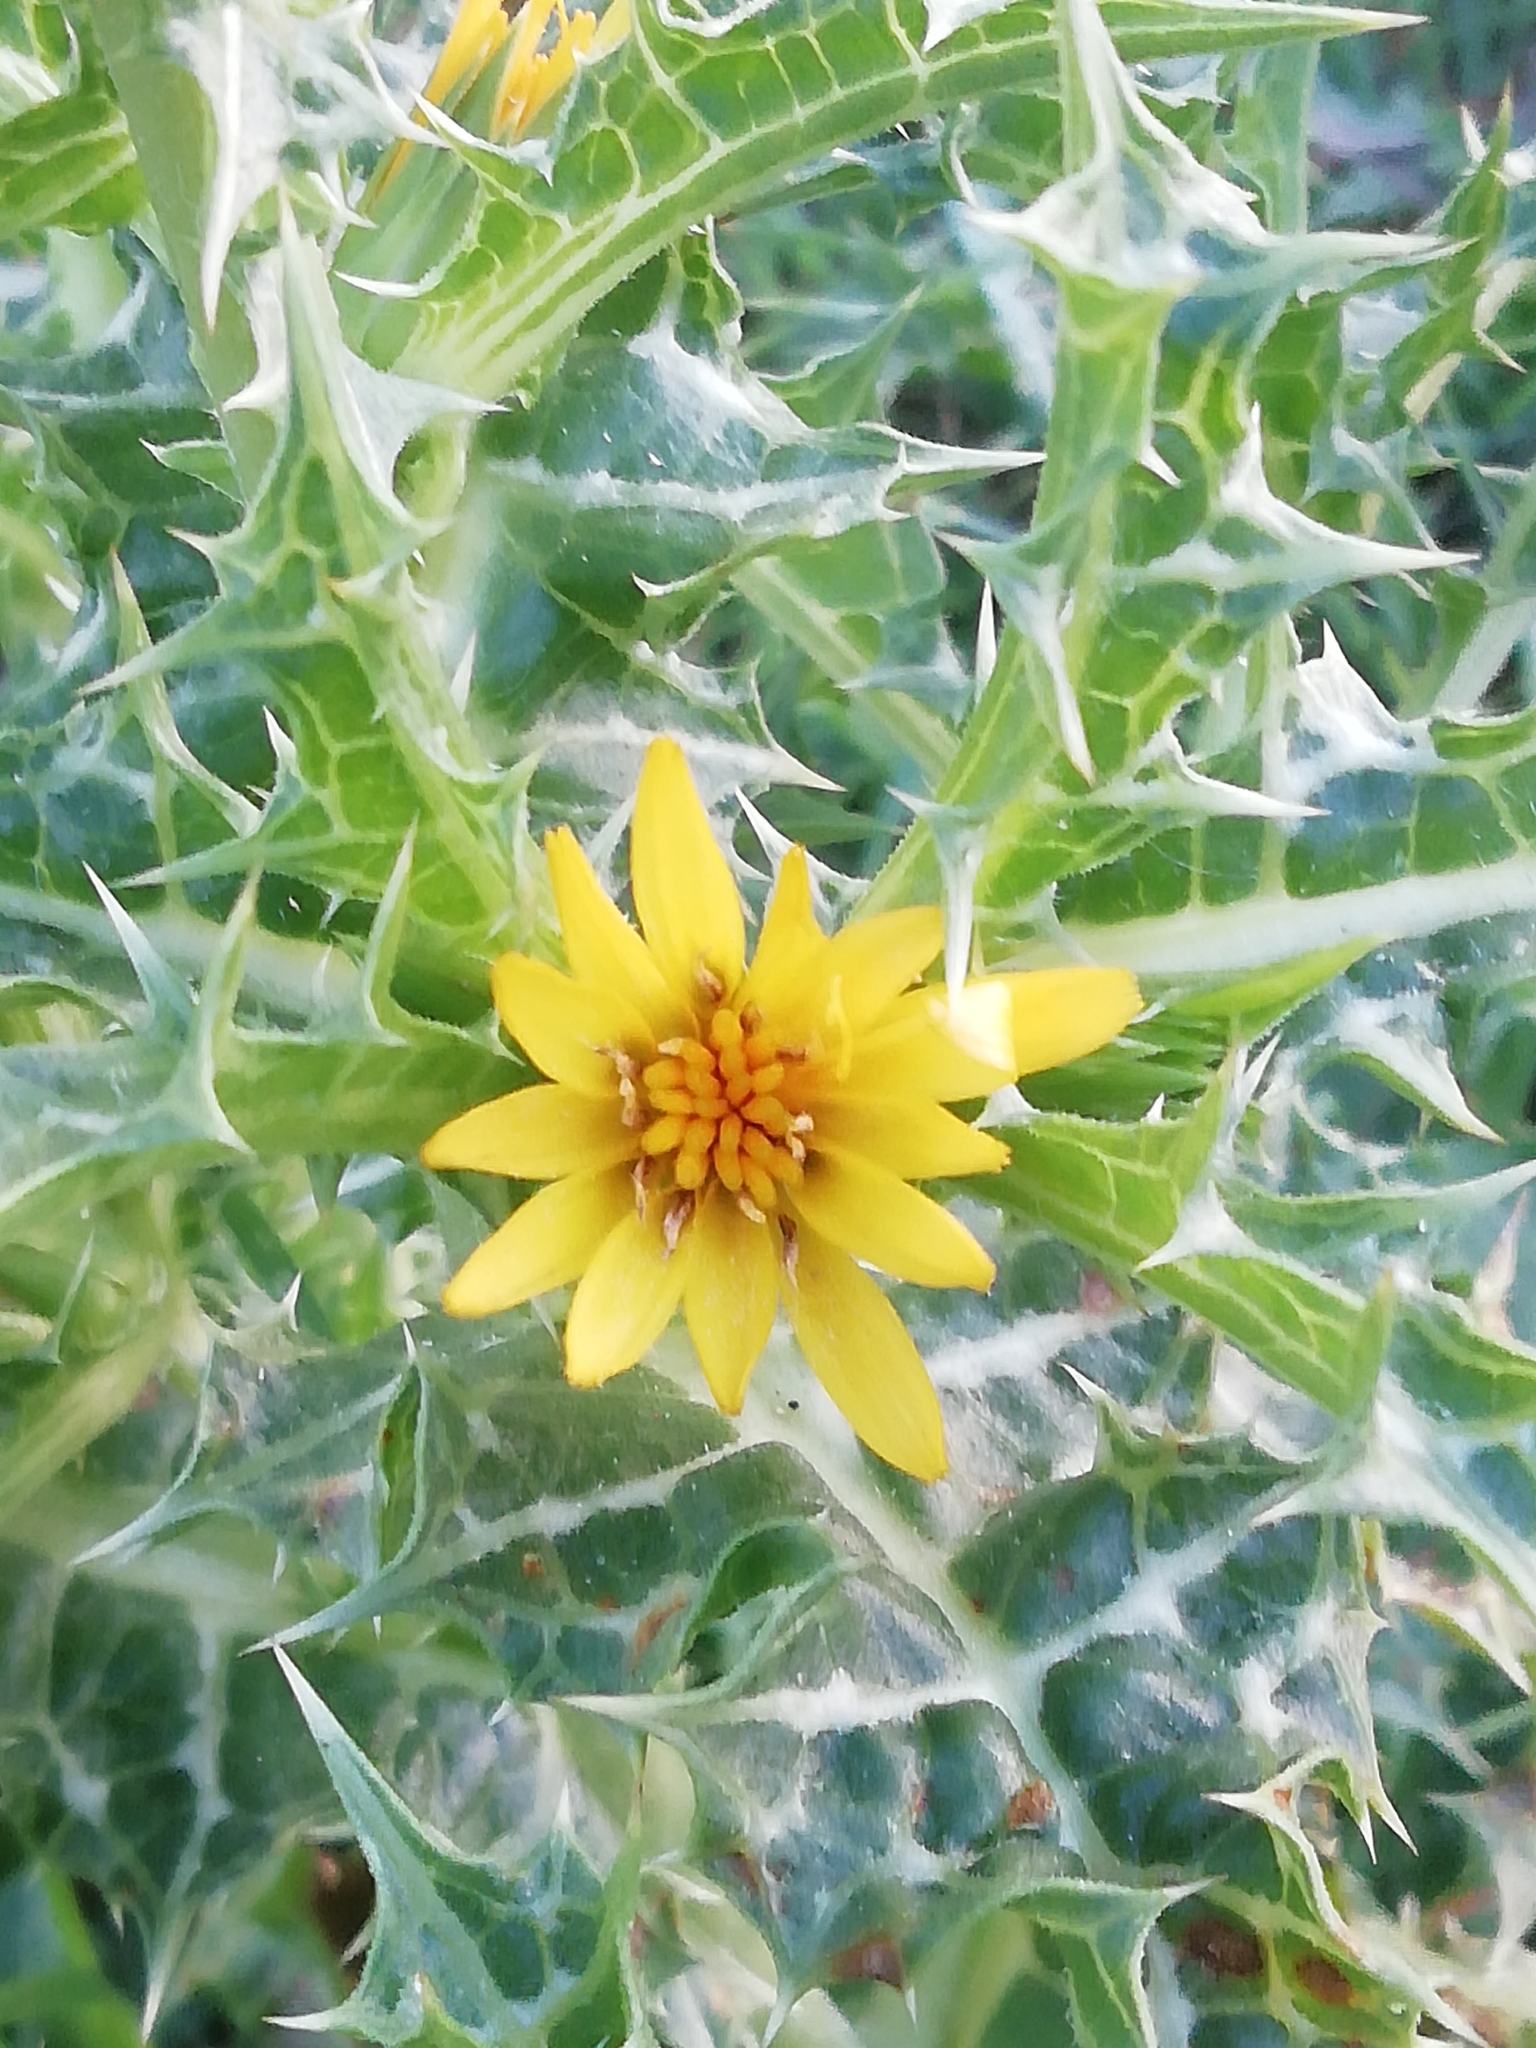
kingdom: Plantae
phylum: Tracheophyta
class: Magnoliopsida
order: Asterales
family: Asteraceae
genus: Scolymus
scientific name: Scolymus hispanicus
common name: Golden thistle
